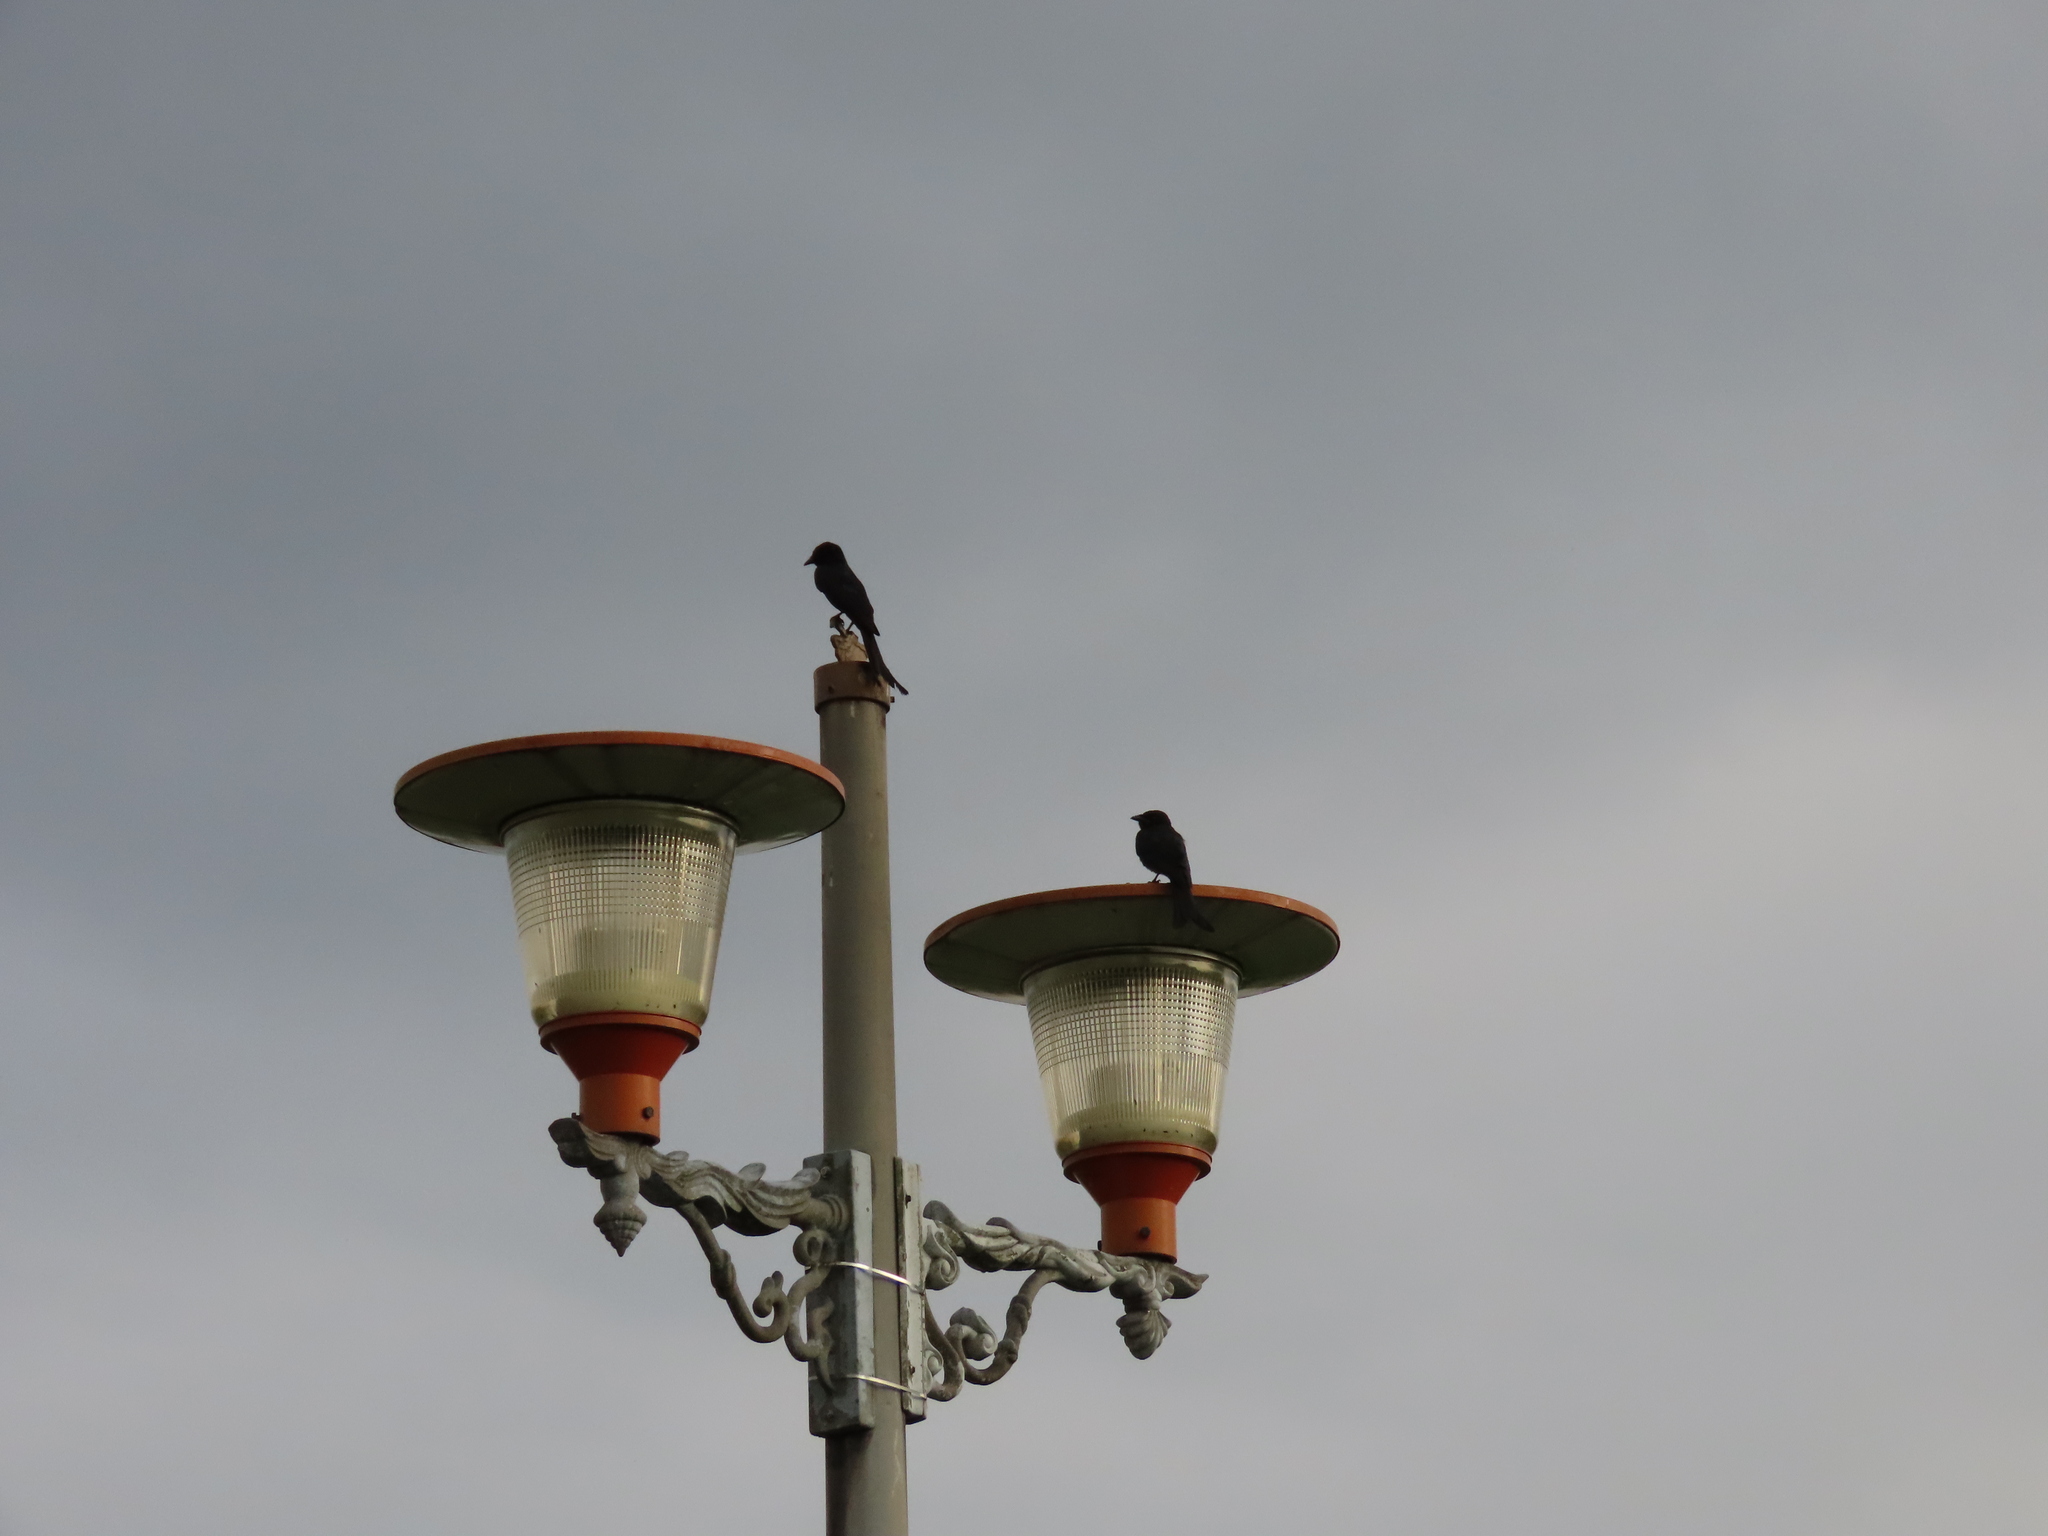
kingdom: Animalia
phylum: Chordata
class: Aves
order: Passeriformes
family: Dicruridae
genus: Dicrurus
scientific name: Dicrurus macrocercus
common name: Black drongo
